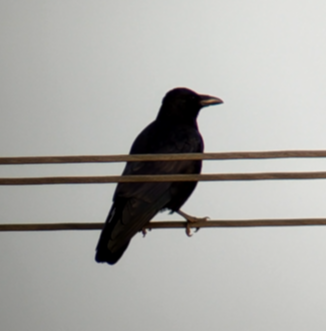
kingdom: Animalia
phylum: Chordata
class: Aves
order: Passeriformes
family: Corvidae
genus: Corvus
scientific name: Corvus corone
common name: Carrion crow
